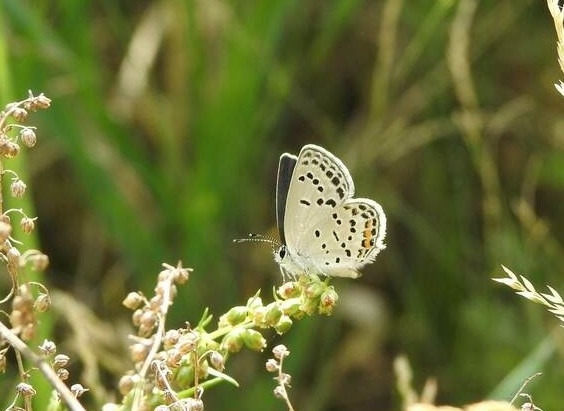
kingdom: Animalia
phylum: Arthropoda
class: Insecta
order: Lepidoptera
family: Lycaenidae
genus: Tongeia
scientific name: Tongeia fischeri
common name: Fischer's blue
